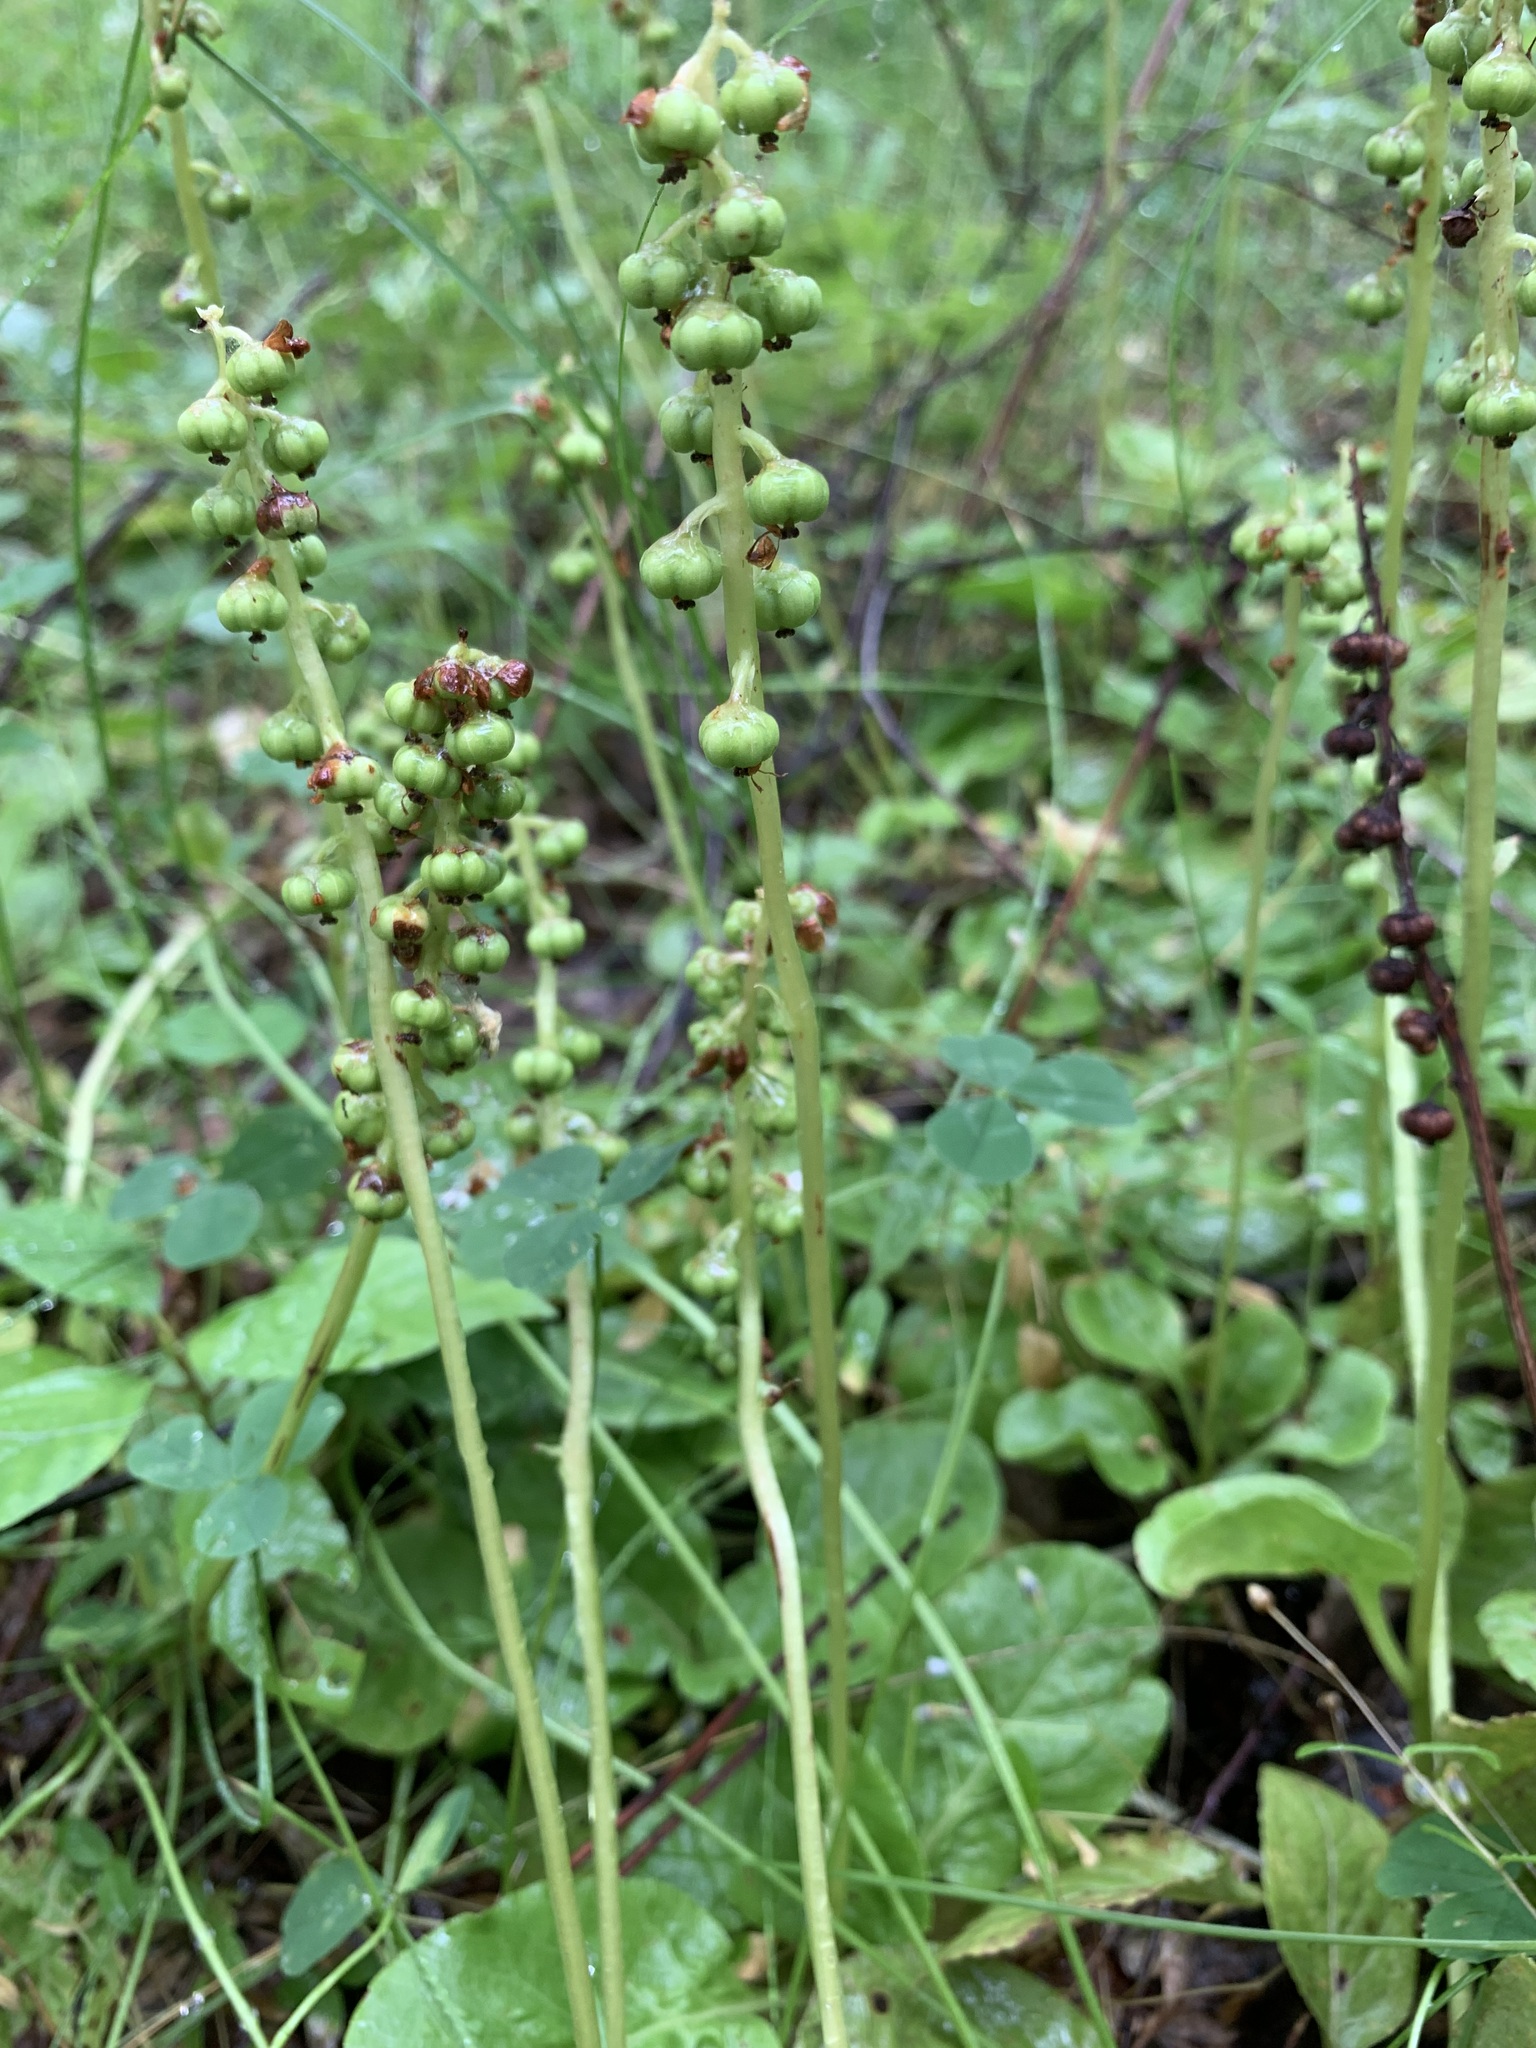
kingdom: Plantae
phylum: Tracheophyta
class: Magnoliopsida
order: Ericales
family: Ericaceae
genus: Pyrola
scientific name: Pyrola minor
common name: Common wintergreen
